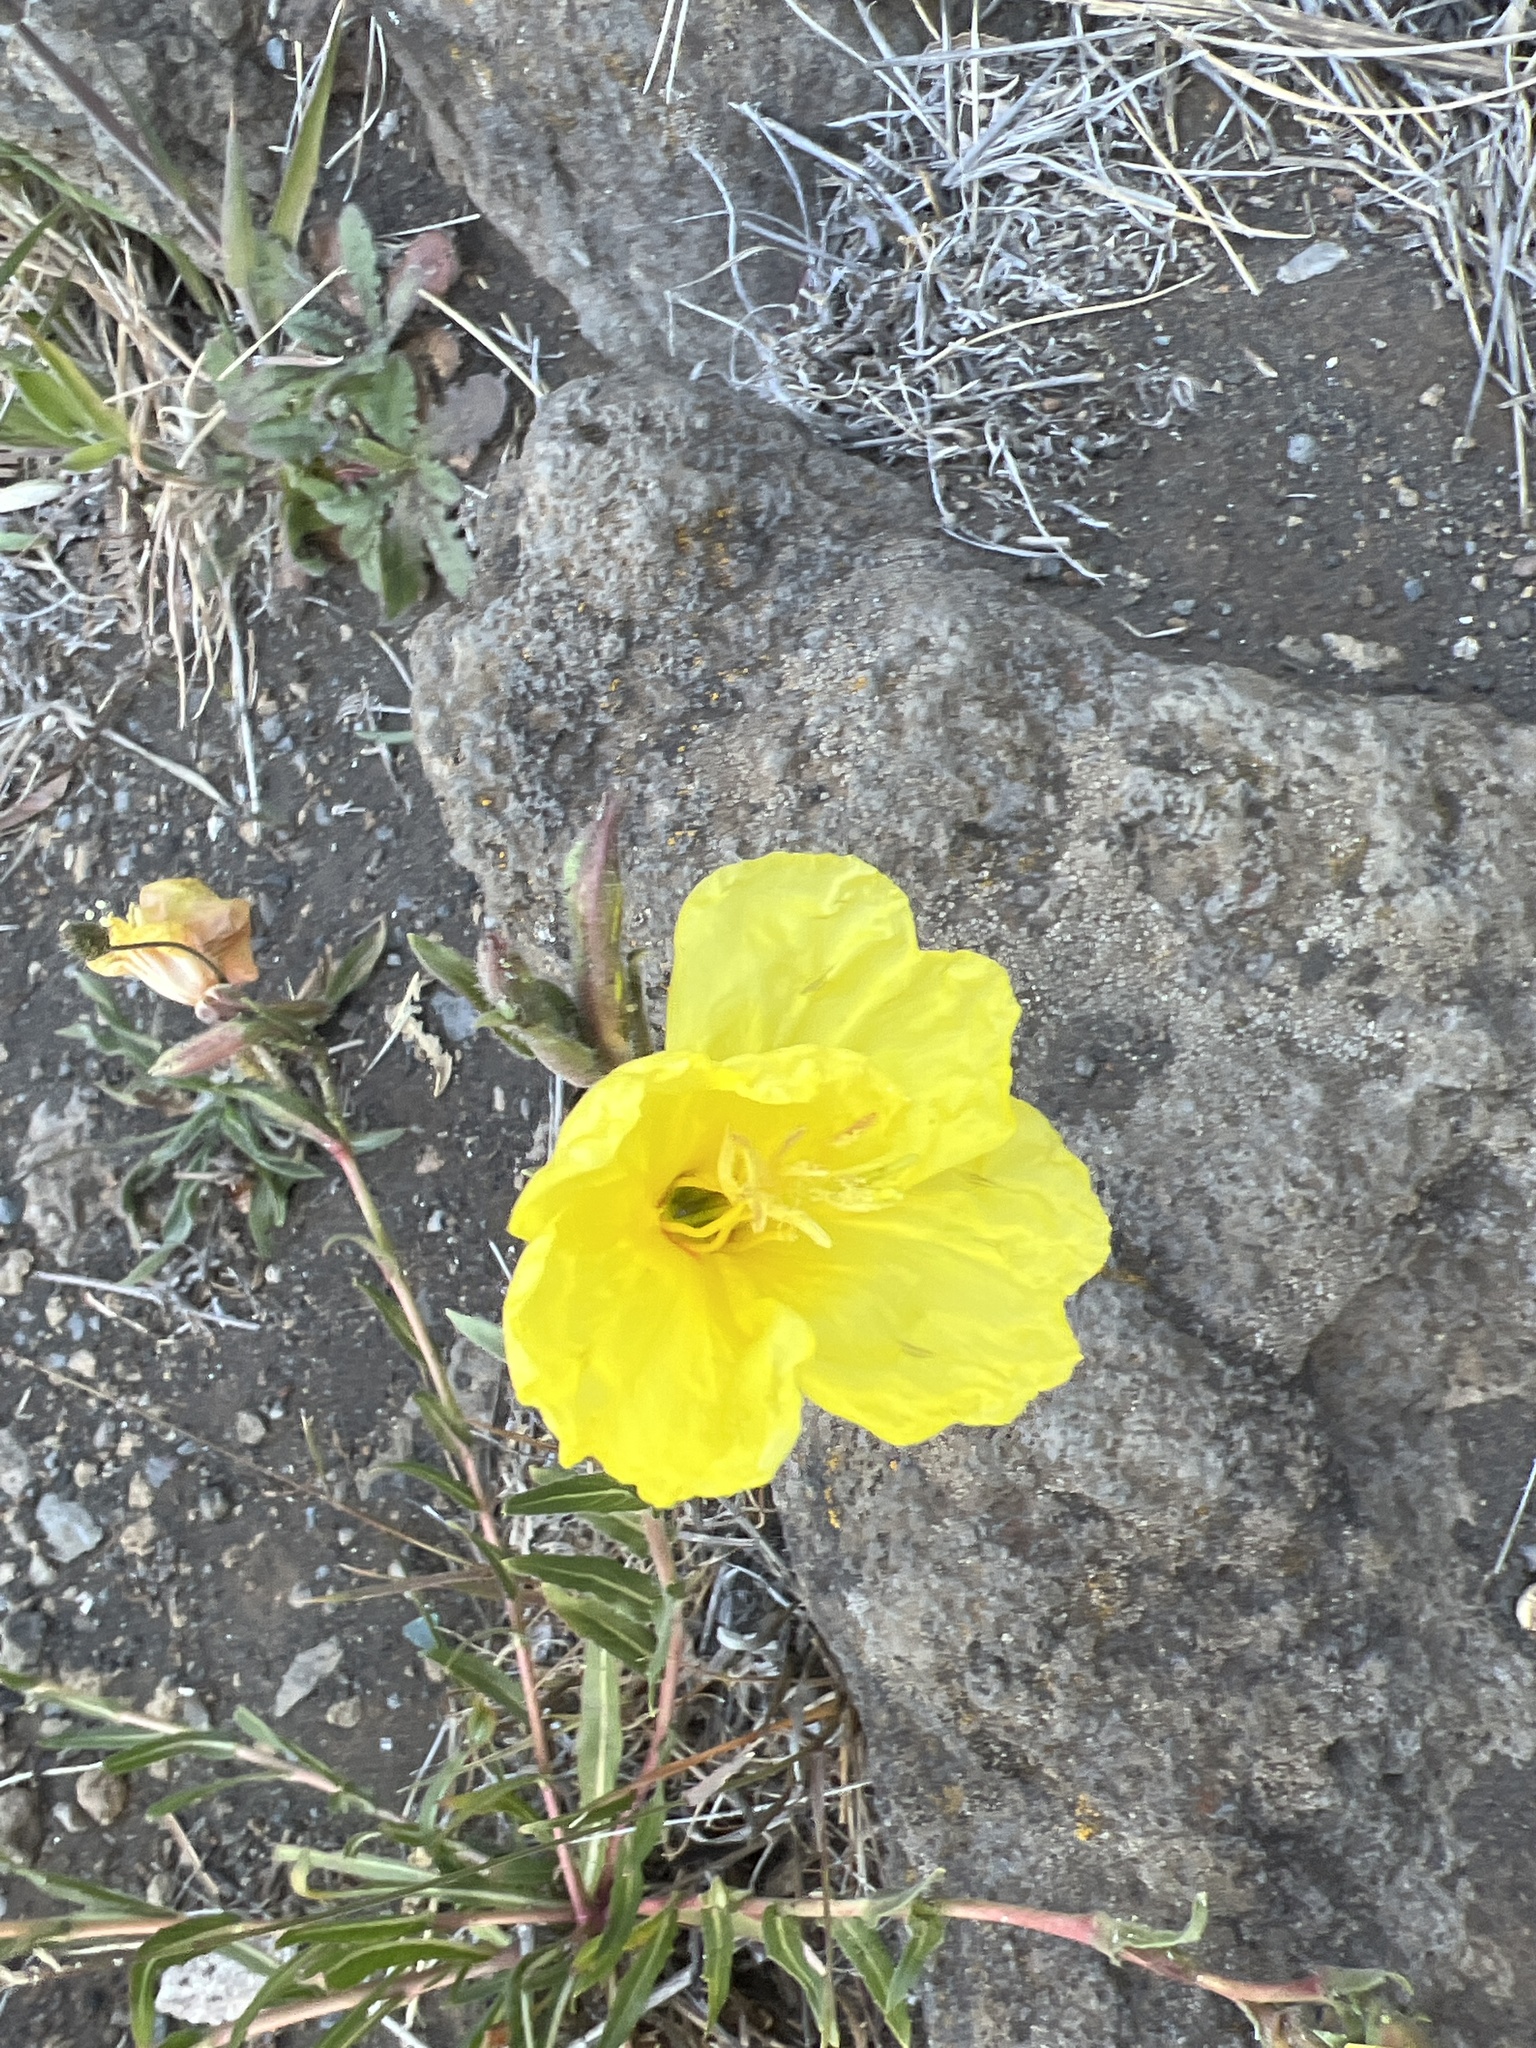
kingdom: Plantae
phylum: Tracheophyta
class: Magnoliopsida
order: Myrtales
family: Onagraceae
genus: Oenothera
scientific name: Oenothera stricta
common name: Fragrant evening-primrose
